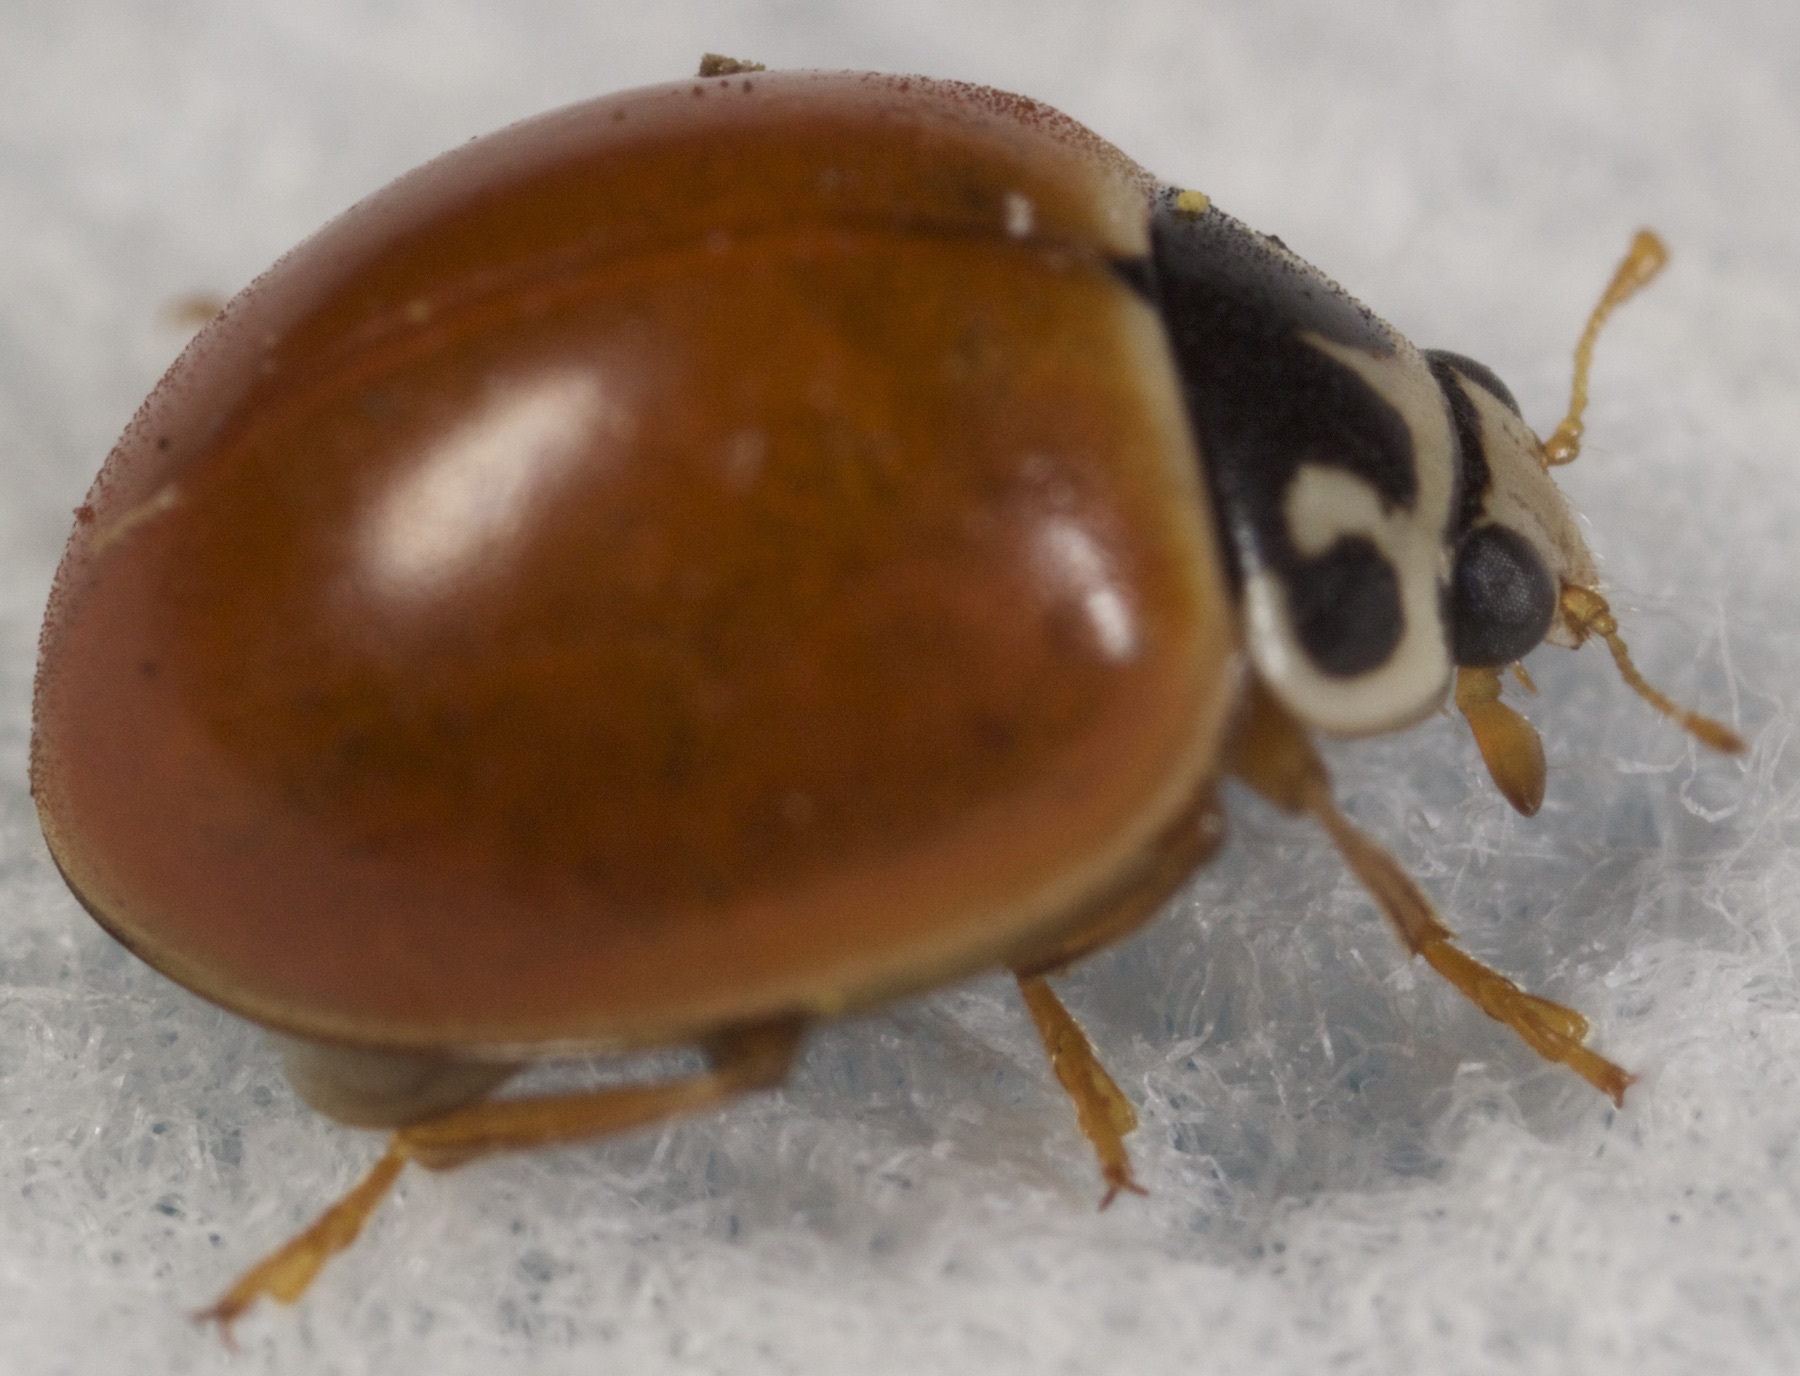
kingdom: Animalia
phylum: Arthropoda
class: Insecta
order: Coleoptera
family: Coccinellidae
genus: Cycloneda
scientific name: Cycloneda munda
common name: Polished lady beetle
